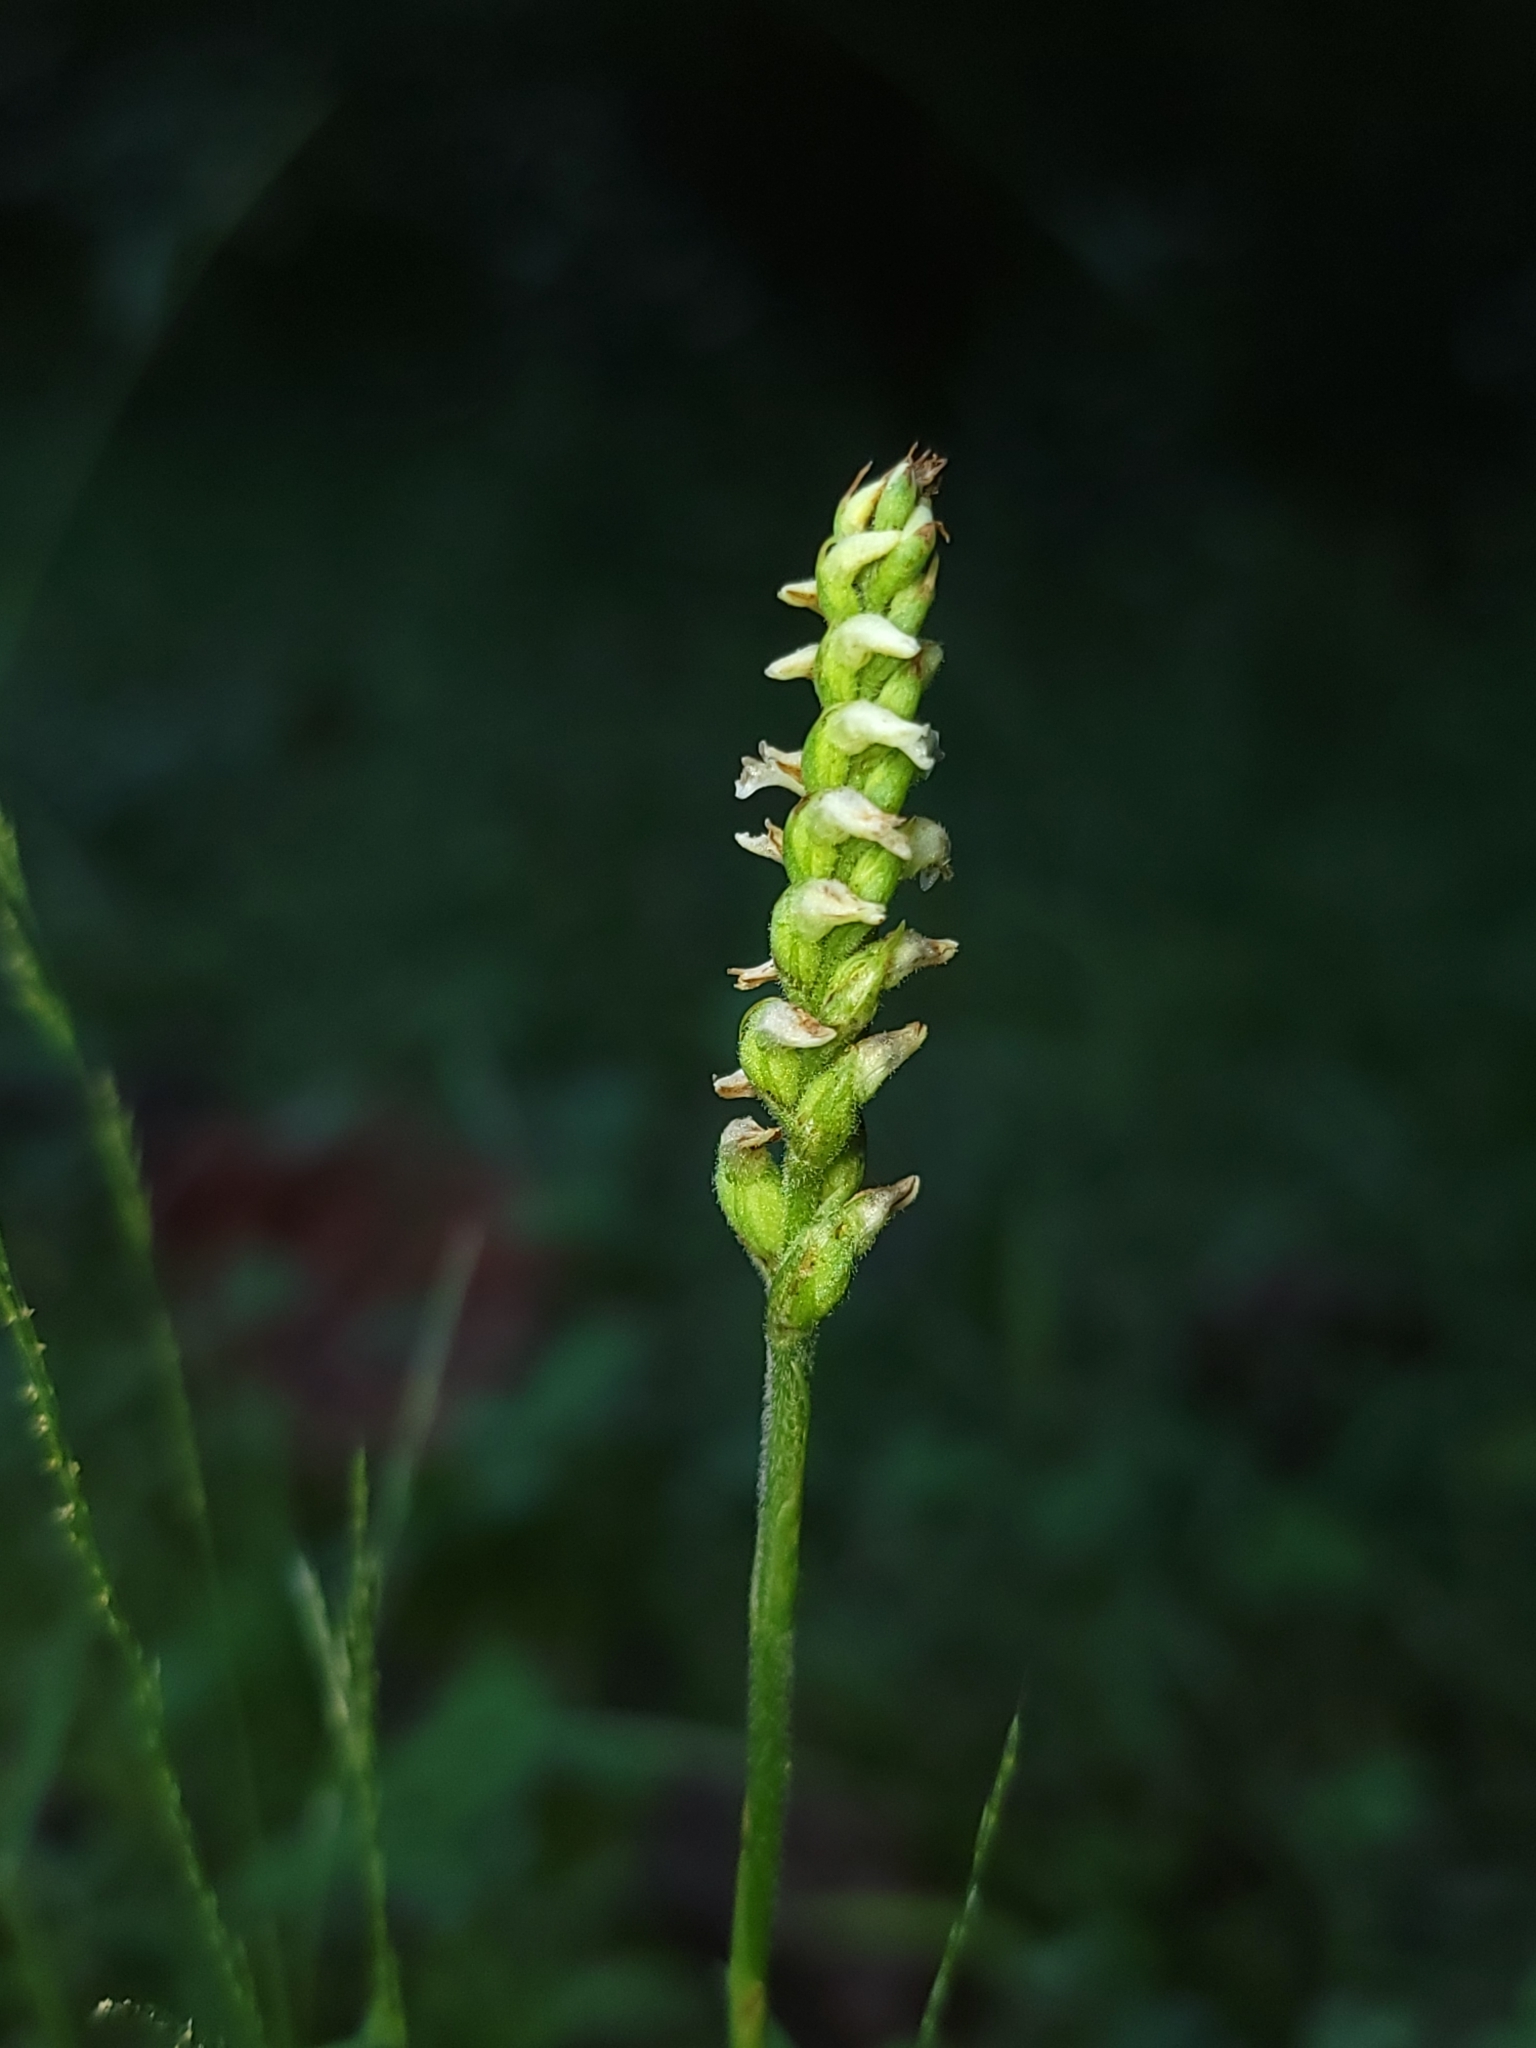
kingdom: Plantae
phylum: Tracheophyta
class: Liliopsida
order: Asparagales
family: Orchidaceae
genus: Spiranthes
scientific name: Spiranthes ovalis
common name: October ladies'-tresses
